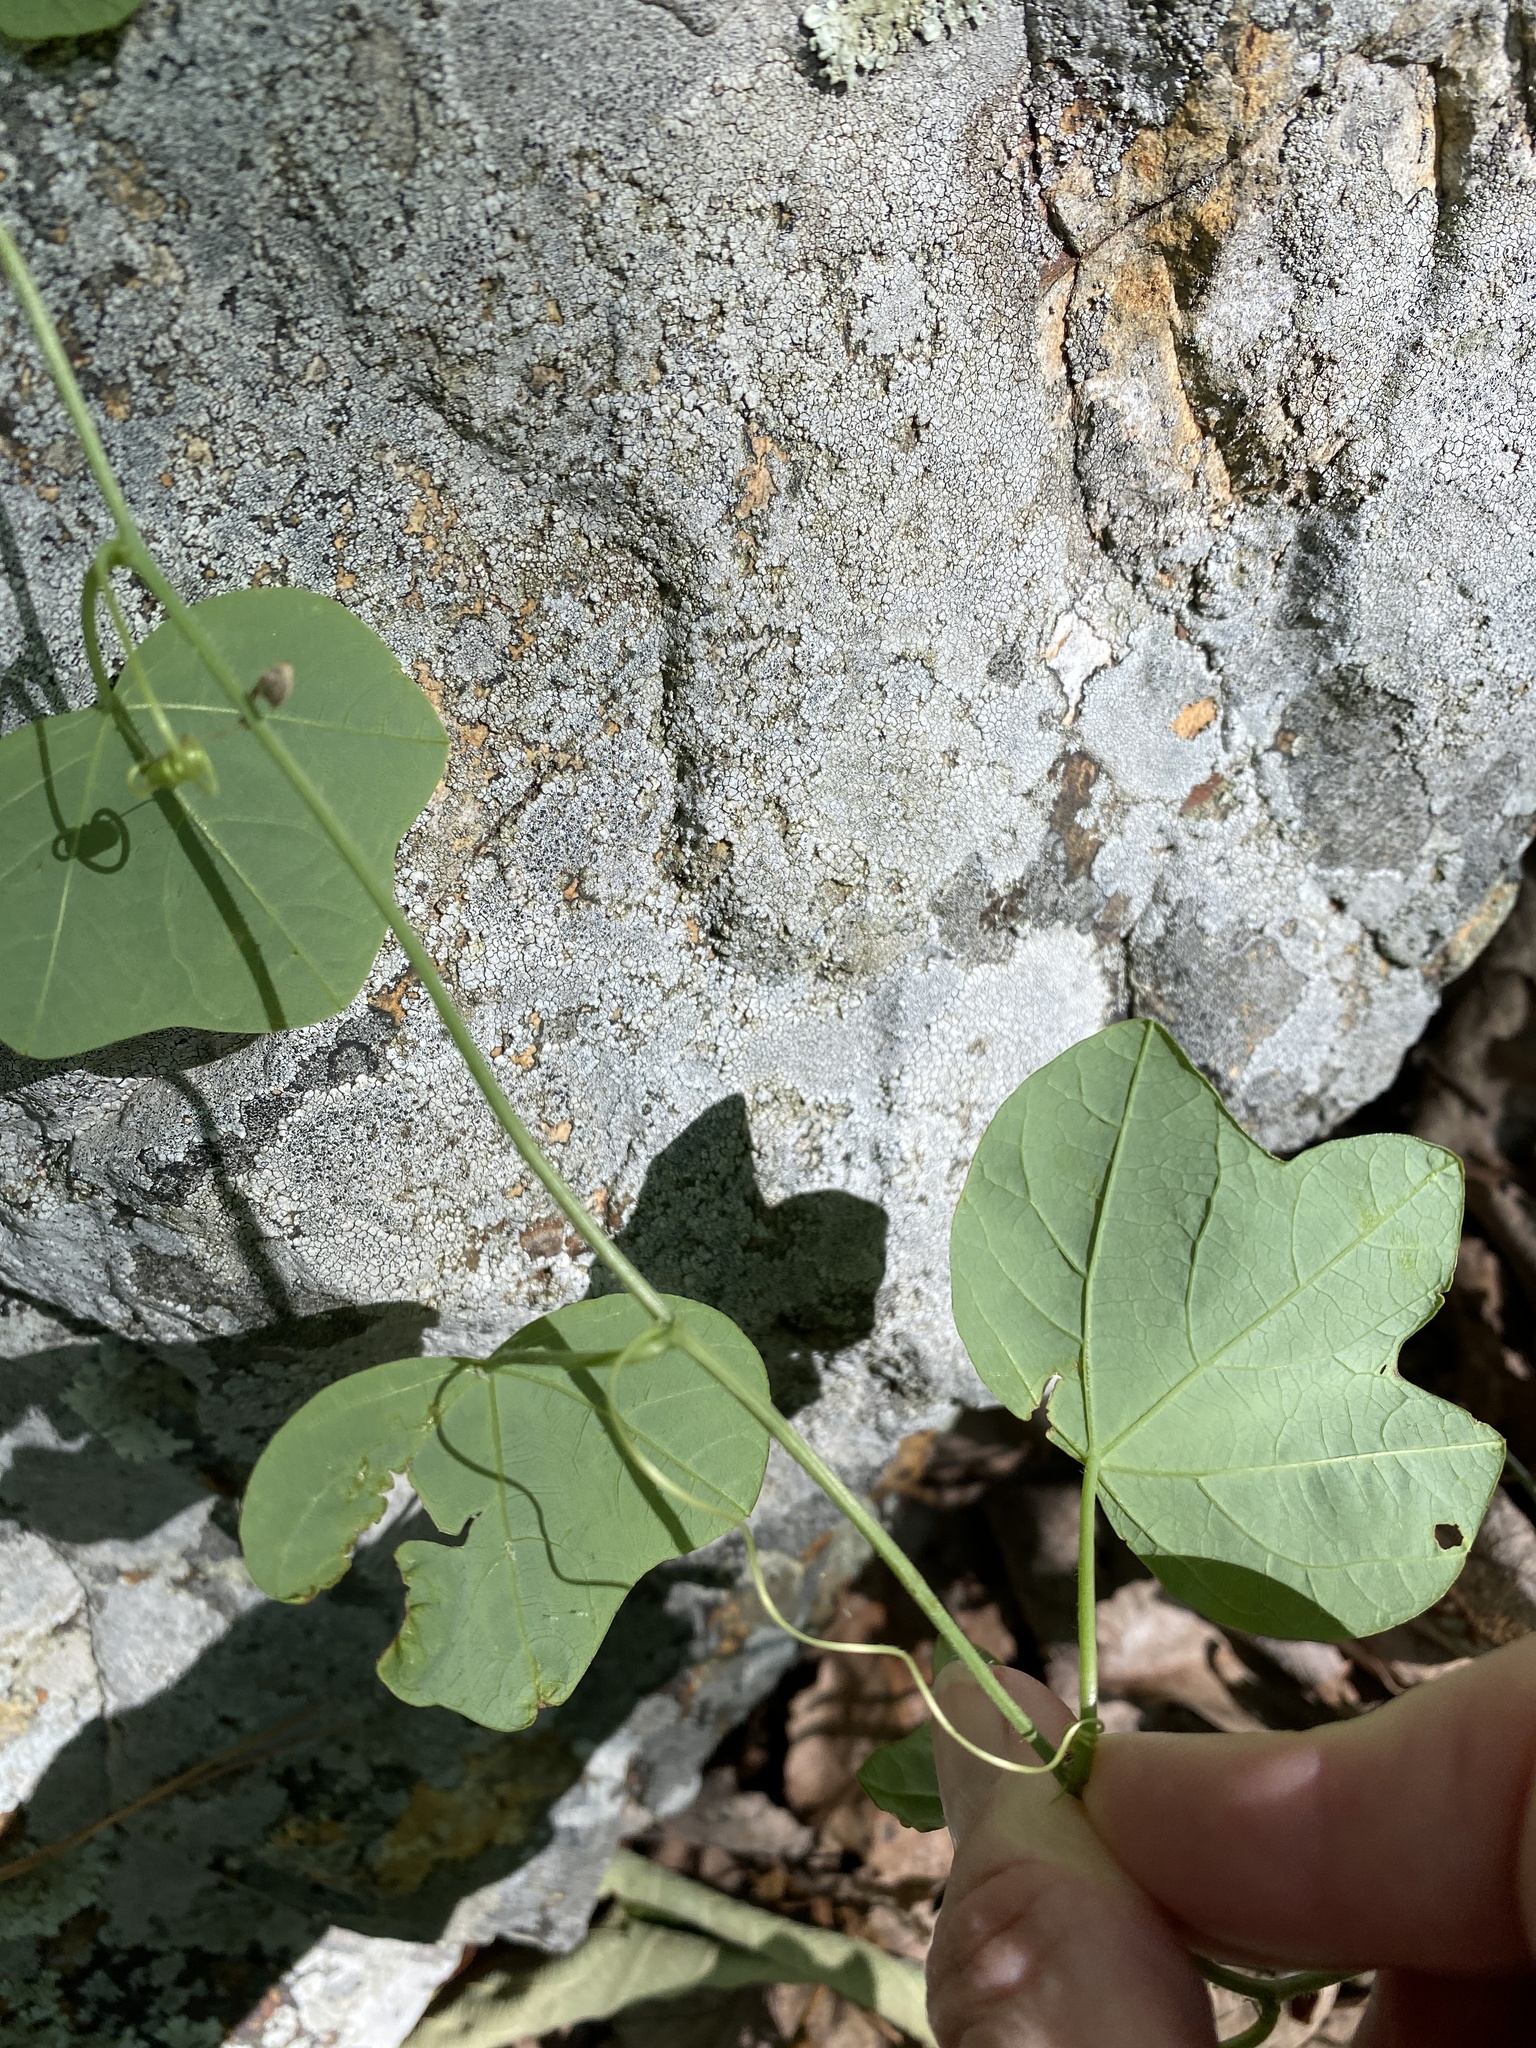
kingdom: Plantae
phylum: Tracheophyta
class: Magnoliopsida
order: Malpighiales
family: Passifloraceae
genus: Passiflora
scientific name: Passiflora lutea
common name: Yellow passionflower
